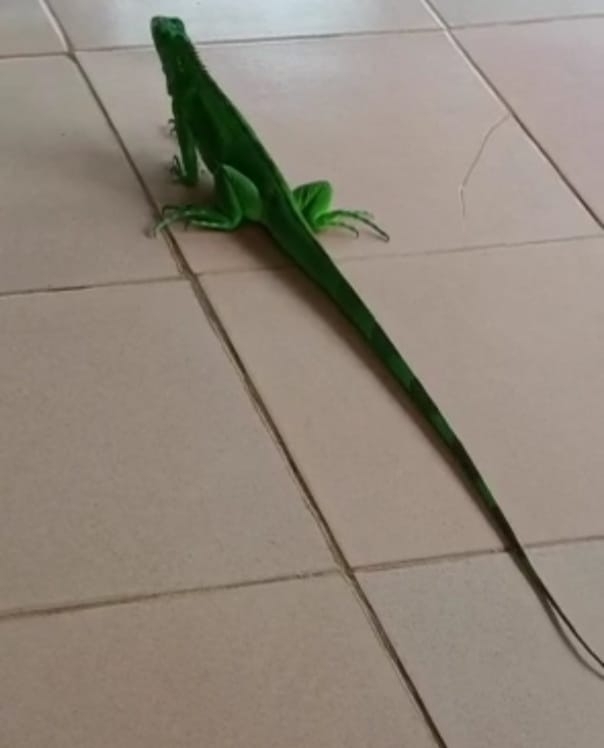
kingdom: Animalia
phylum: Chordata
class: Squamata
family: Iguanidae
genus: Iguana
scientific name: Iguana iguana
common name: Green iguana
